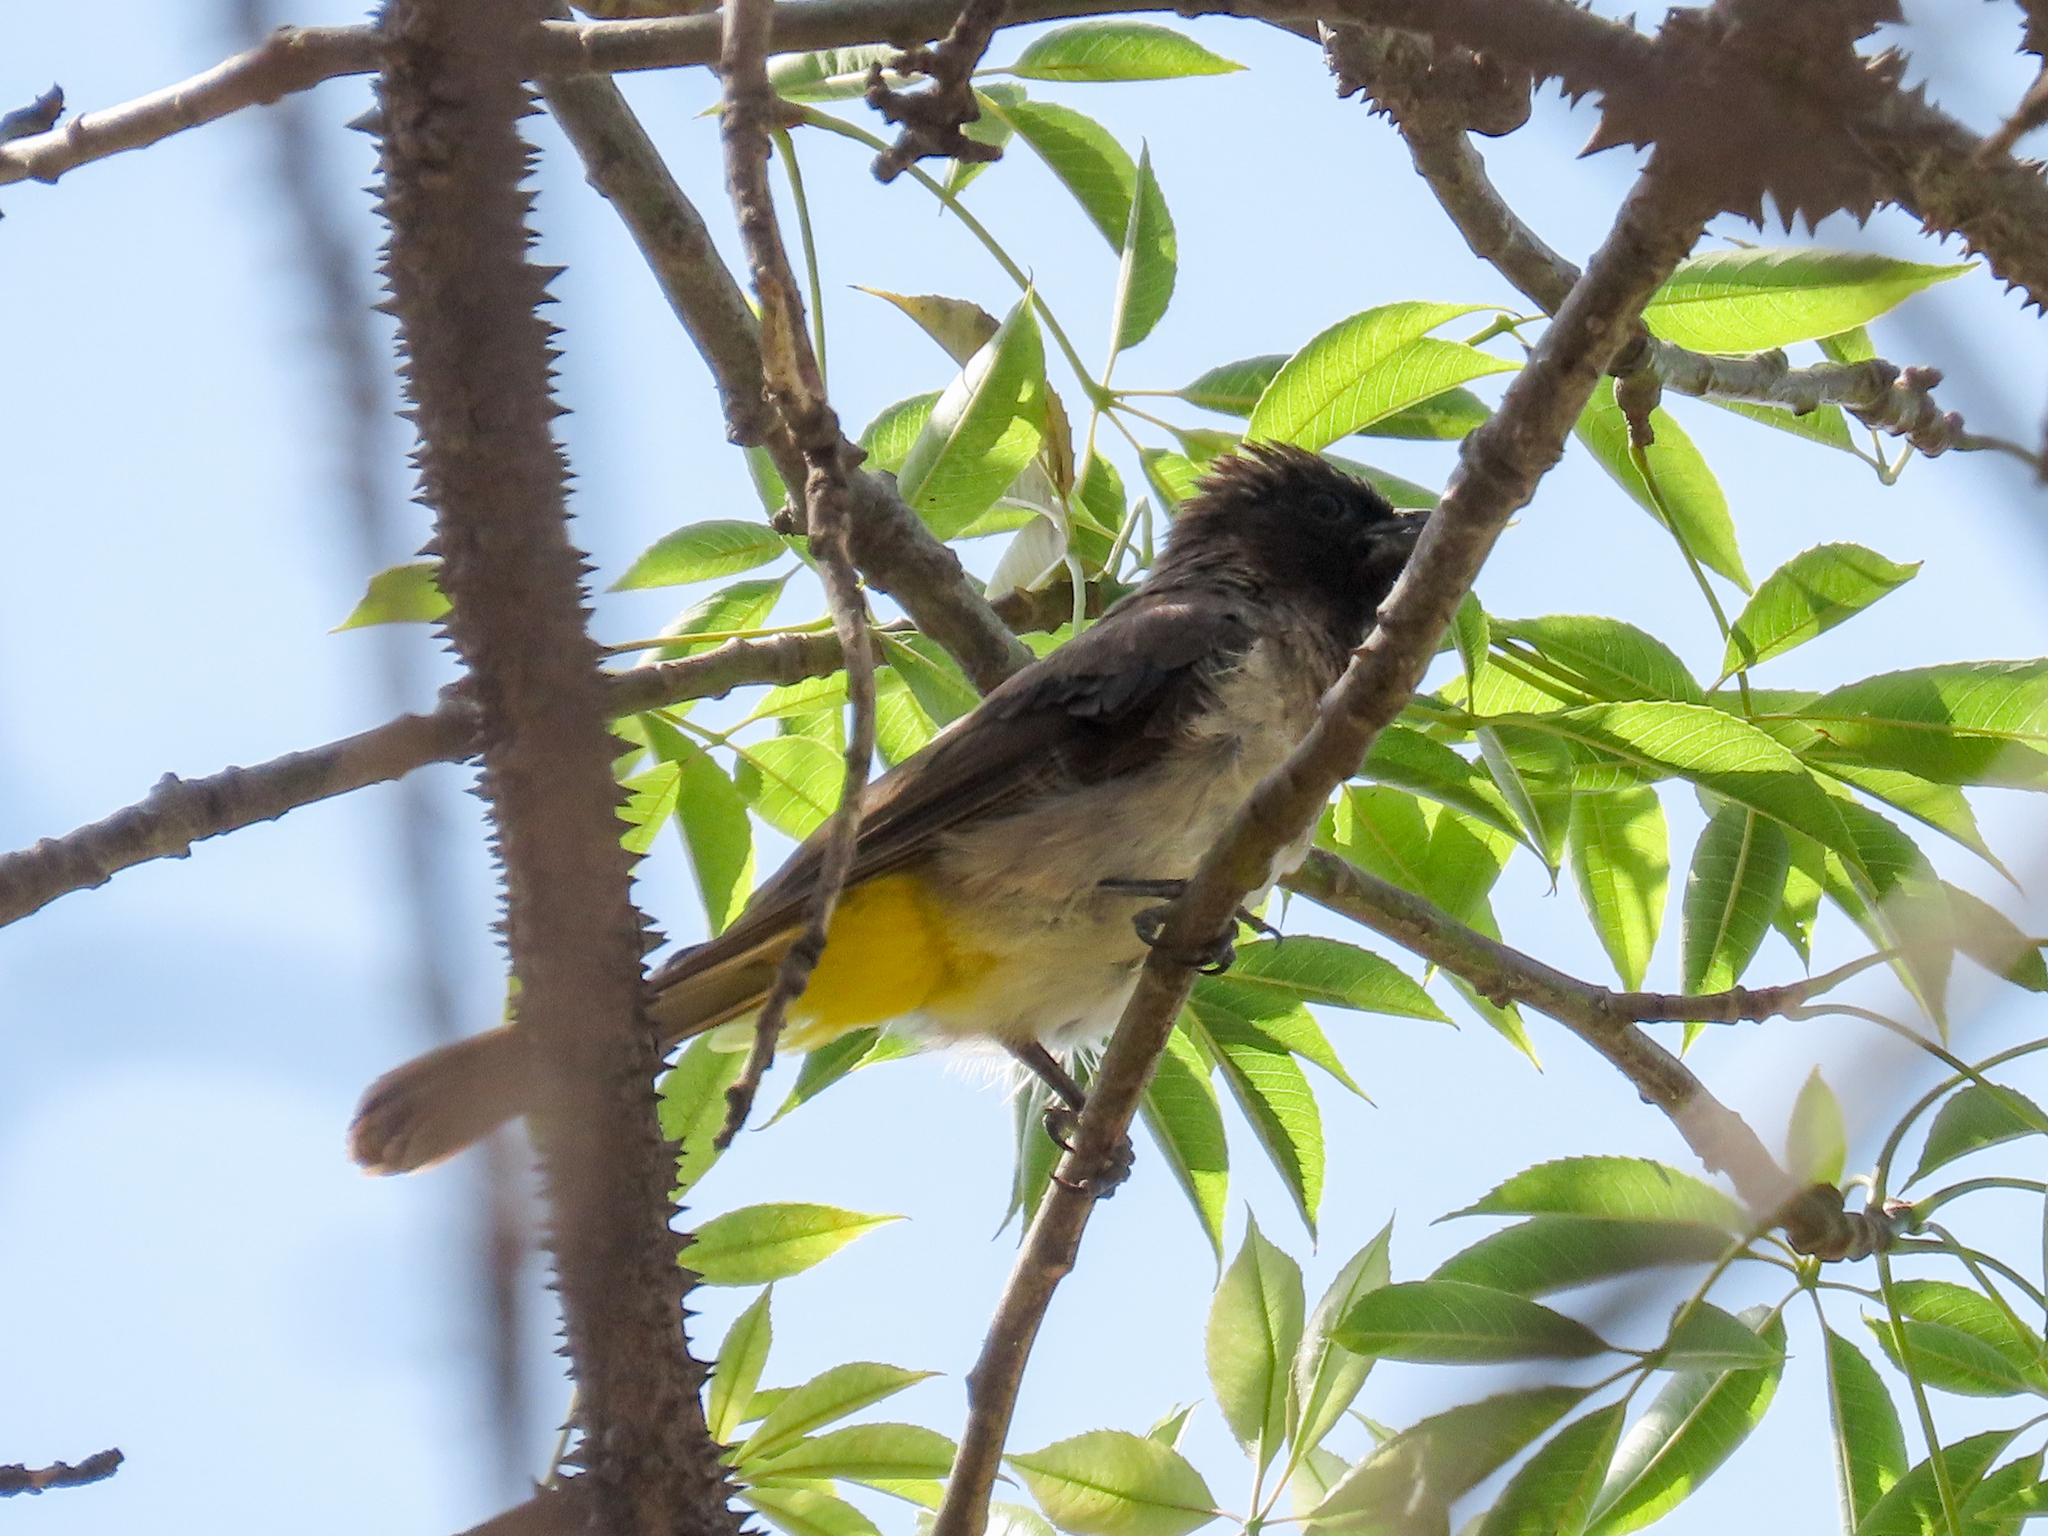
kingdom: Animalia
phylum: Chordata
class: Aves
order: Passeriformes
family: Pycnonotidae
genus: Pycnonotus
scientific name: Pycnonotus barbatus
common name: Common bulbul
